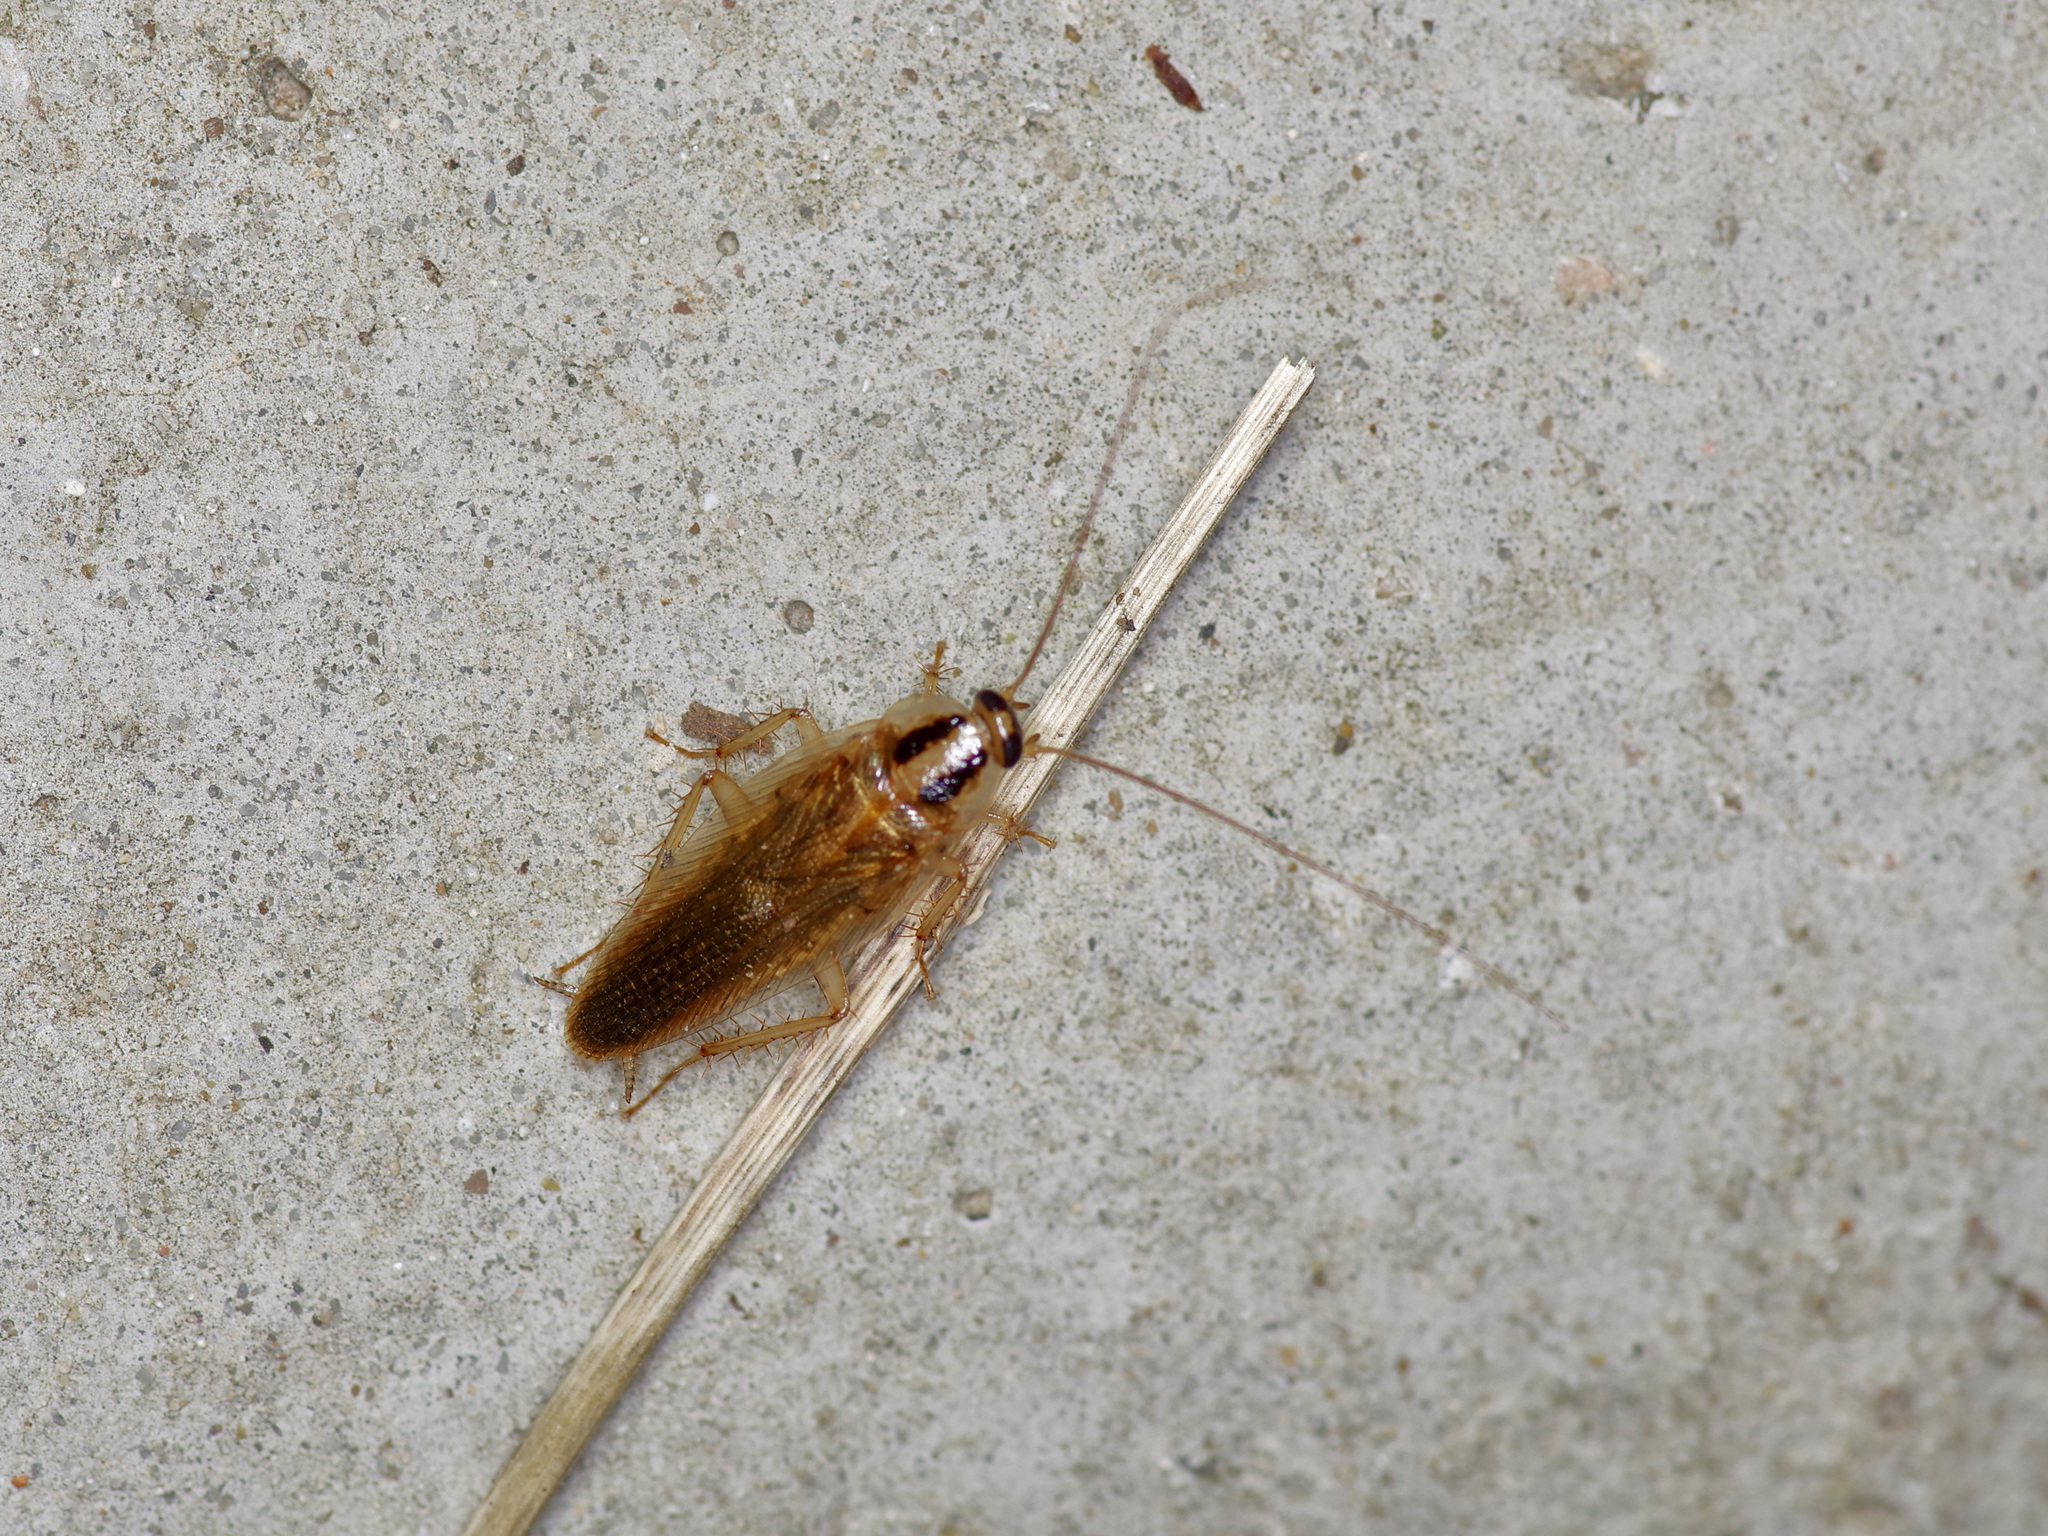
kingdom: Animalia
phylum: Arthropoda
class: Insecta
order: Blattodea
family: Ectobiidae
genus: Blattella
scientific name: Blattella germanica
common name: German cockroach
